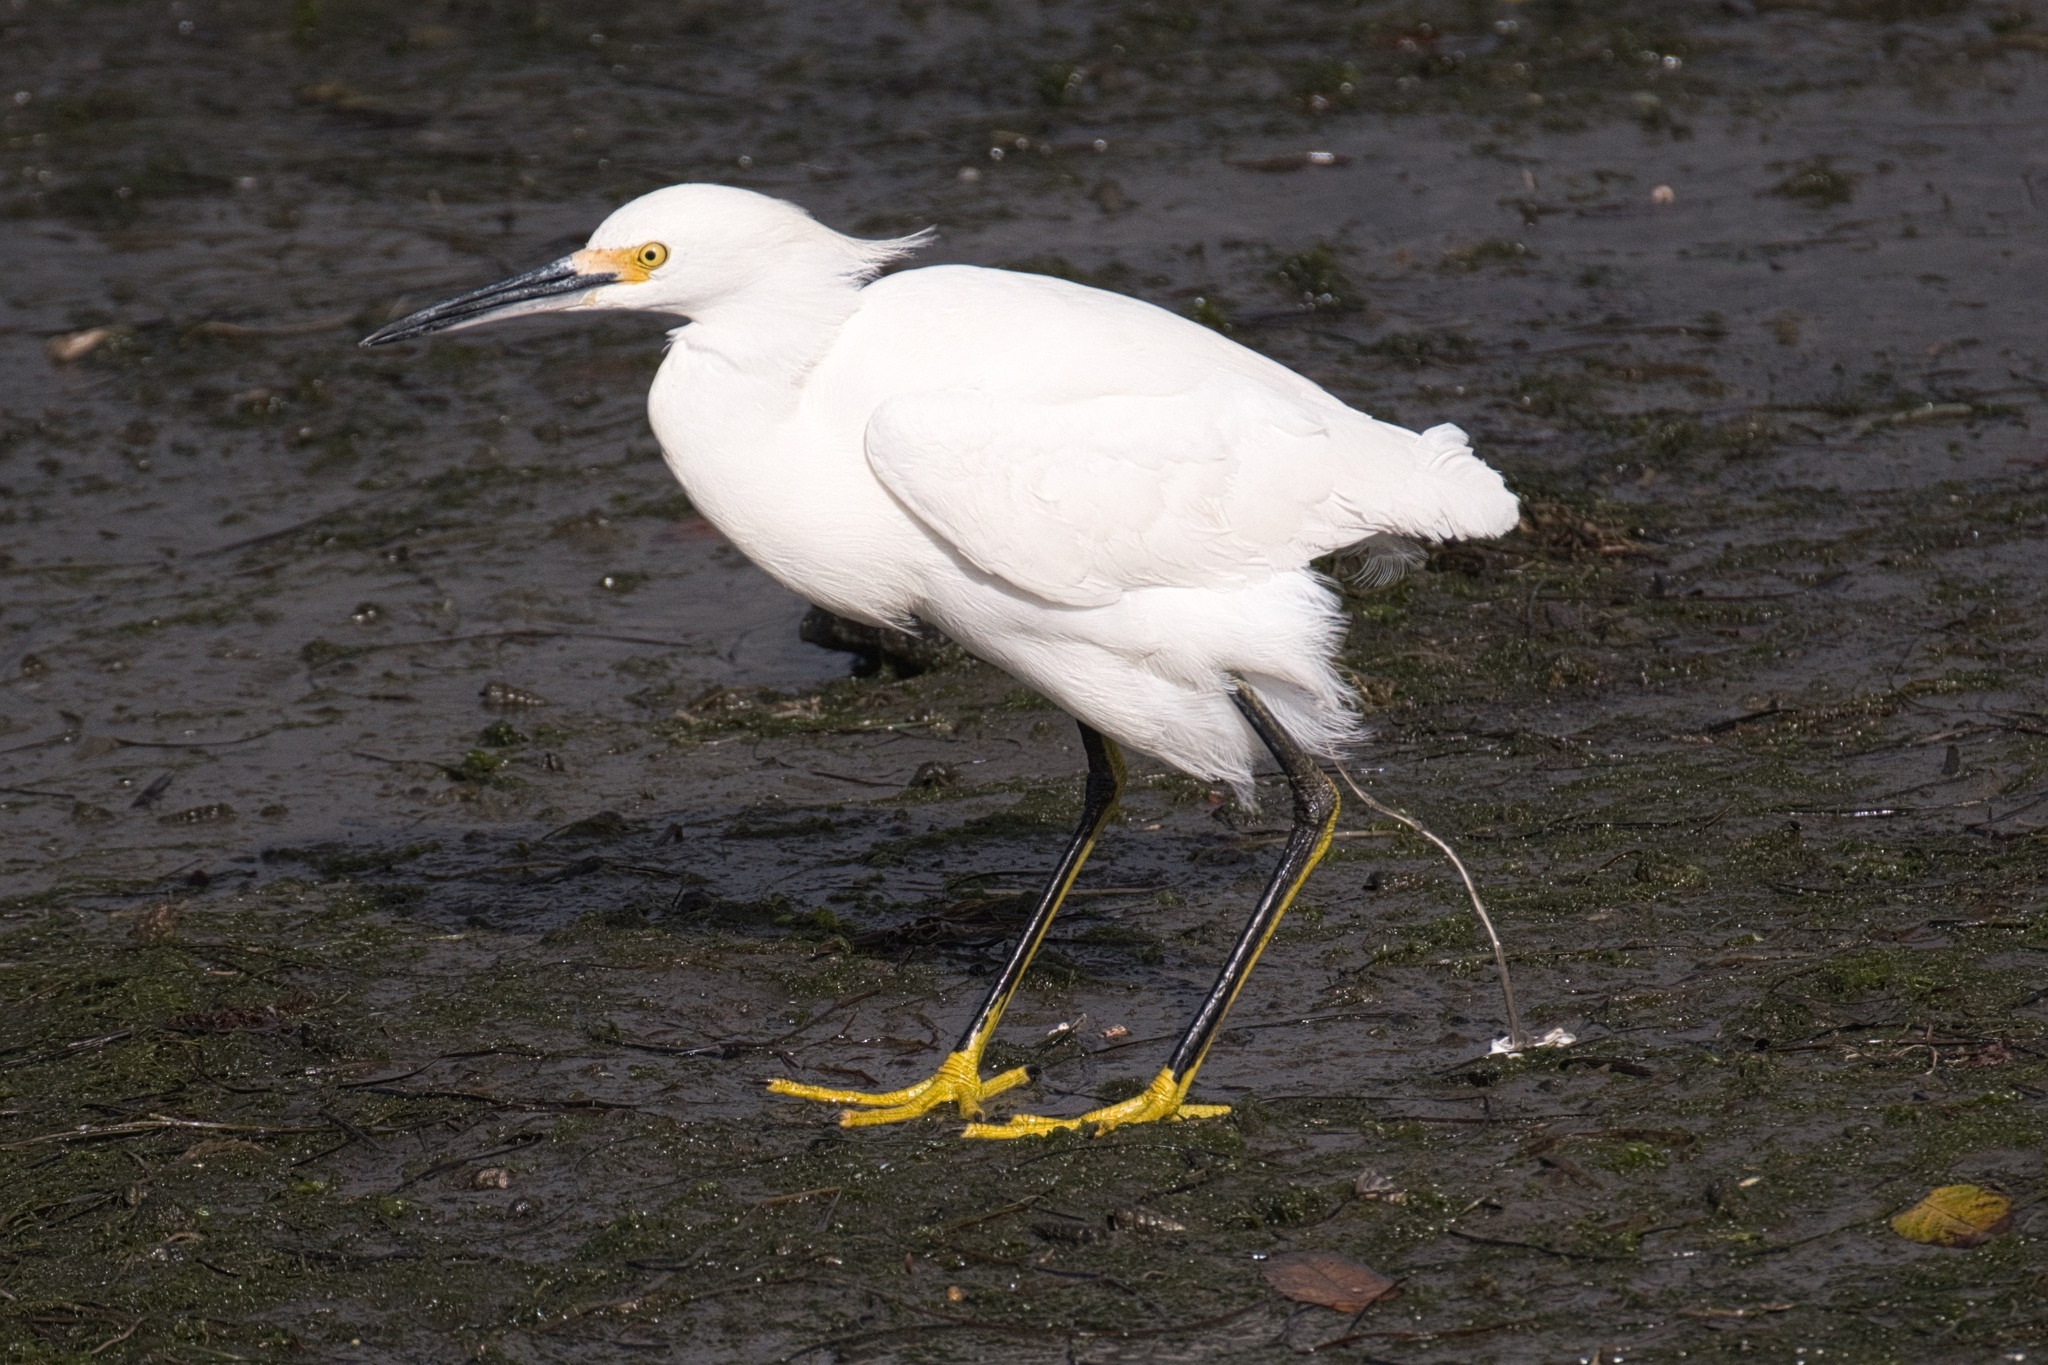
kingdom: Animalia
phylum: Chordata
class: Aves
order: Pelecaniformes
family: Ardeidae
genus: Egretta
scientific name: Egretta thula
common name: Snowy egret
